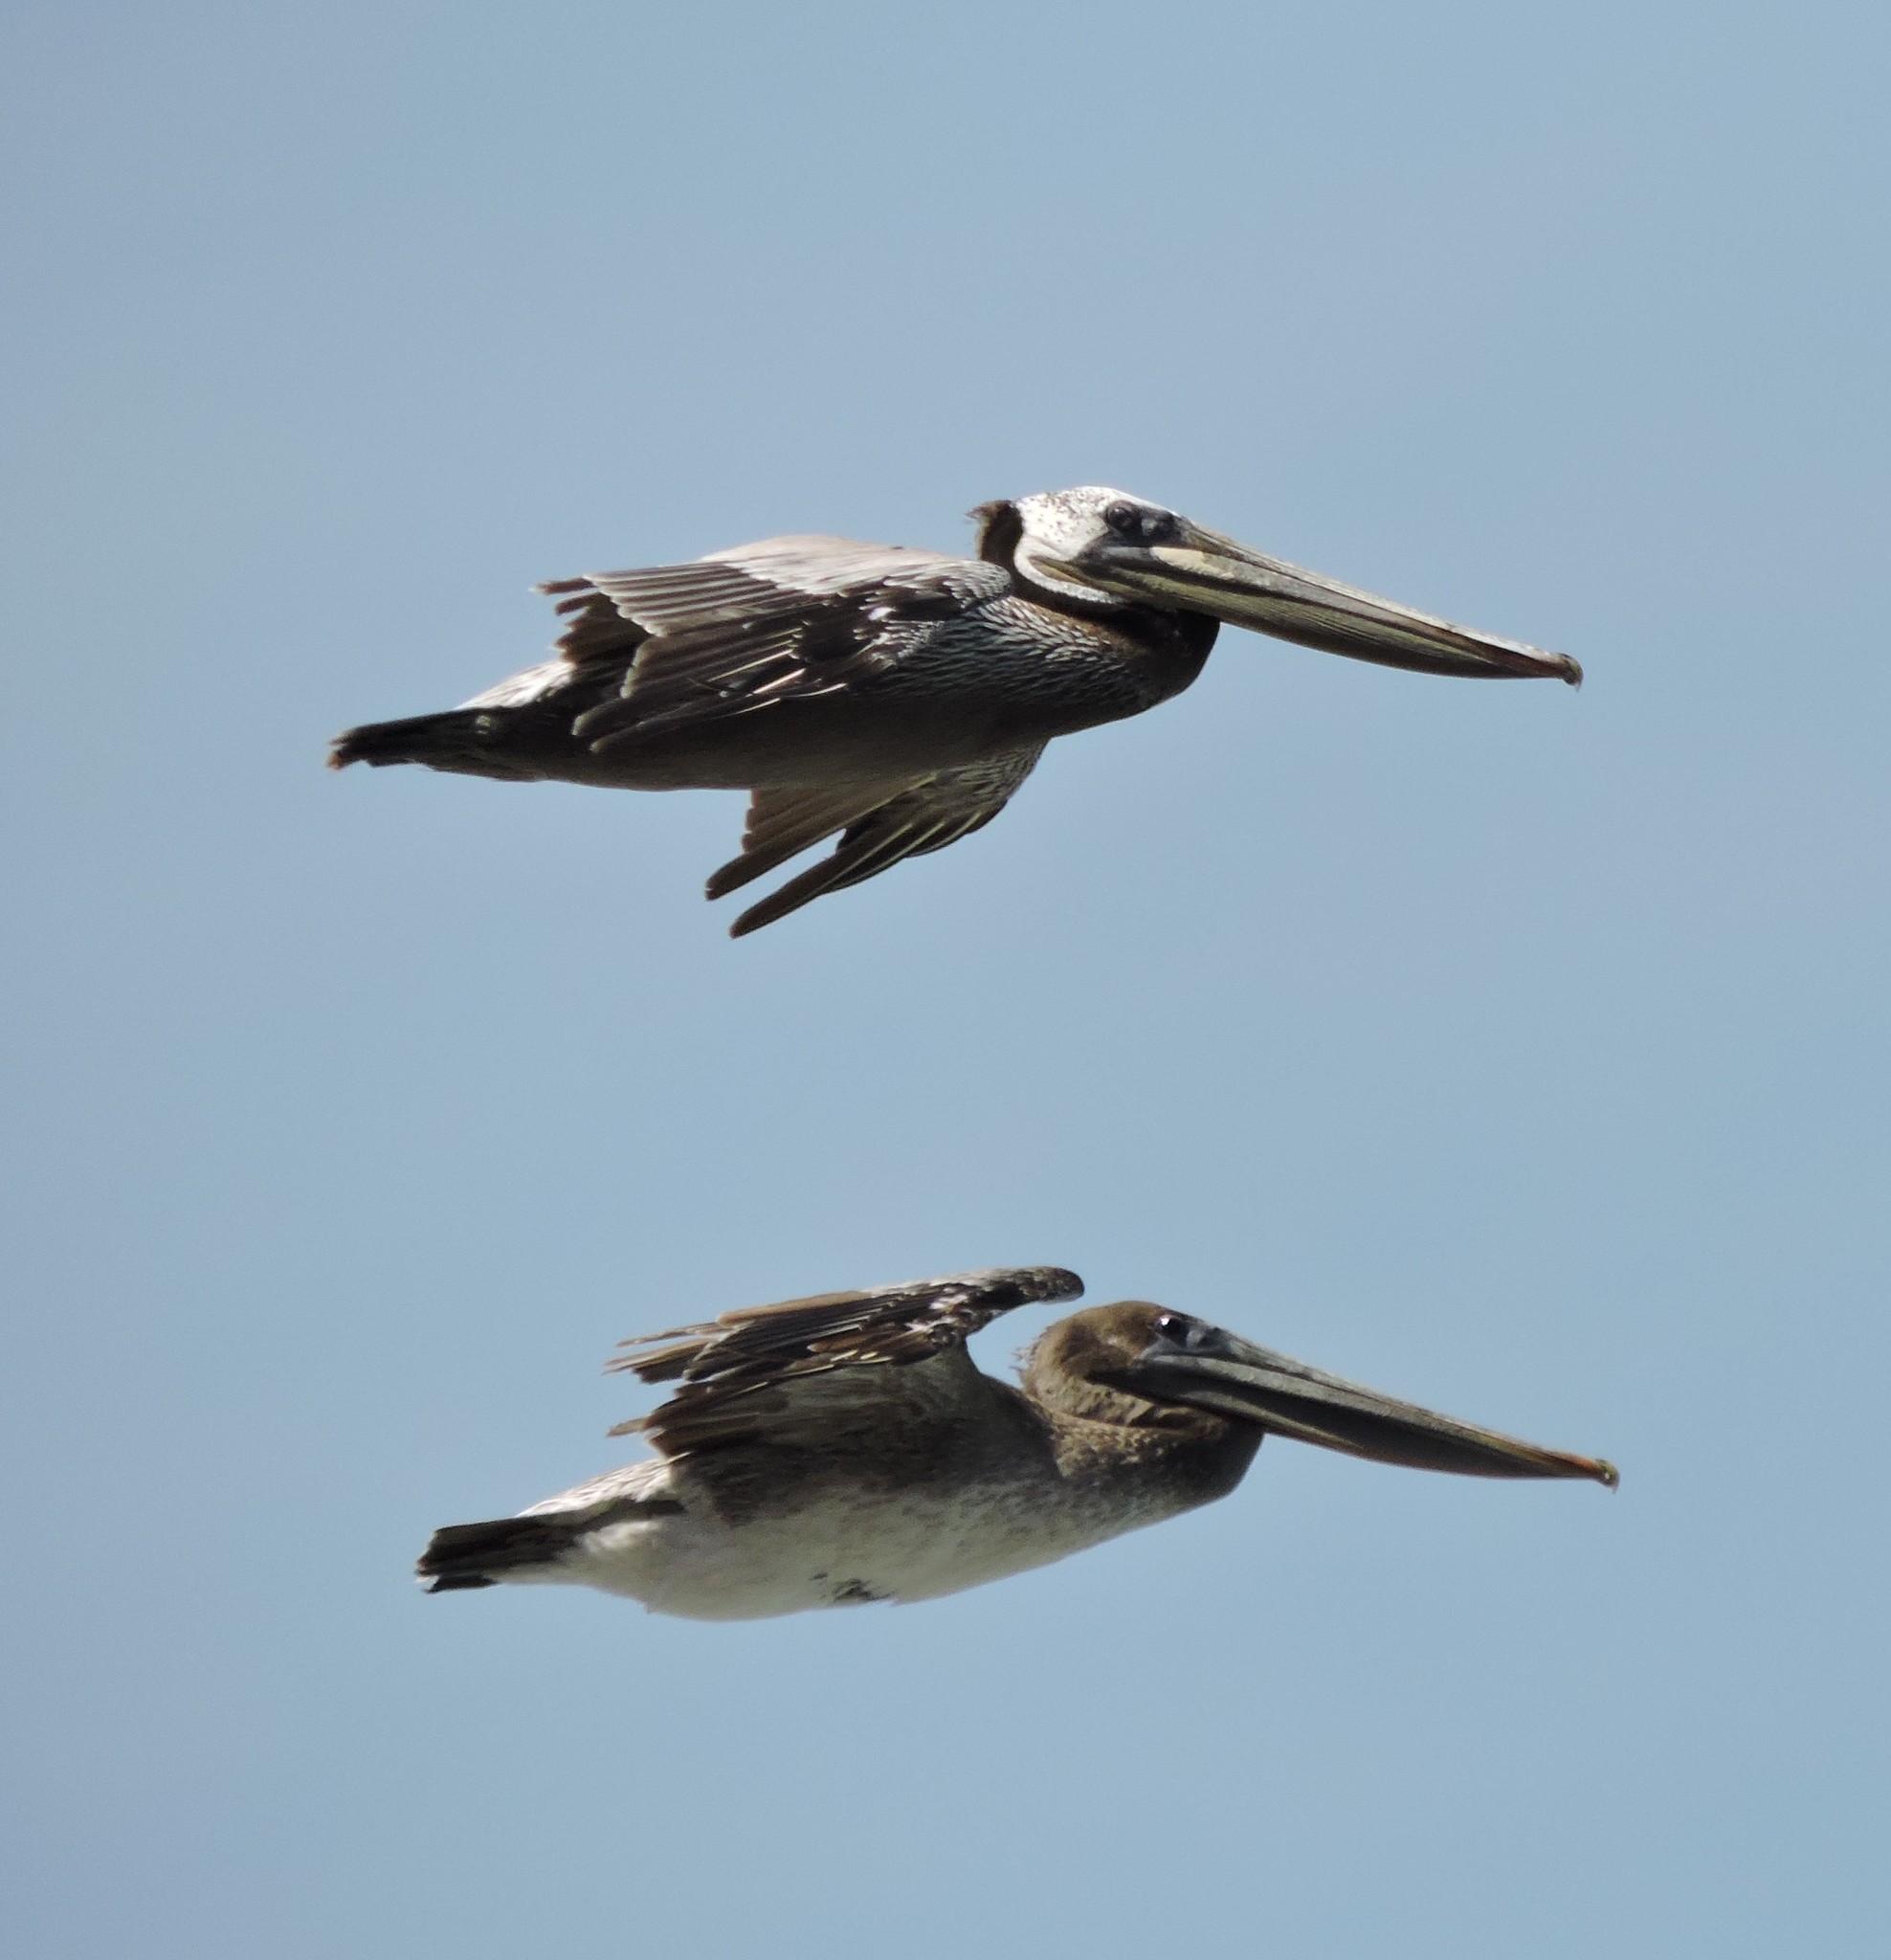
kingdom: Animalia
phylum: Chordata
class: Aves
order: Pelecaniformes
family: Pelecanidae
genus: Pelecanus
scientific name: Pelecanus occidentalis
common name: Brown pelican
